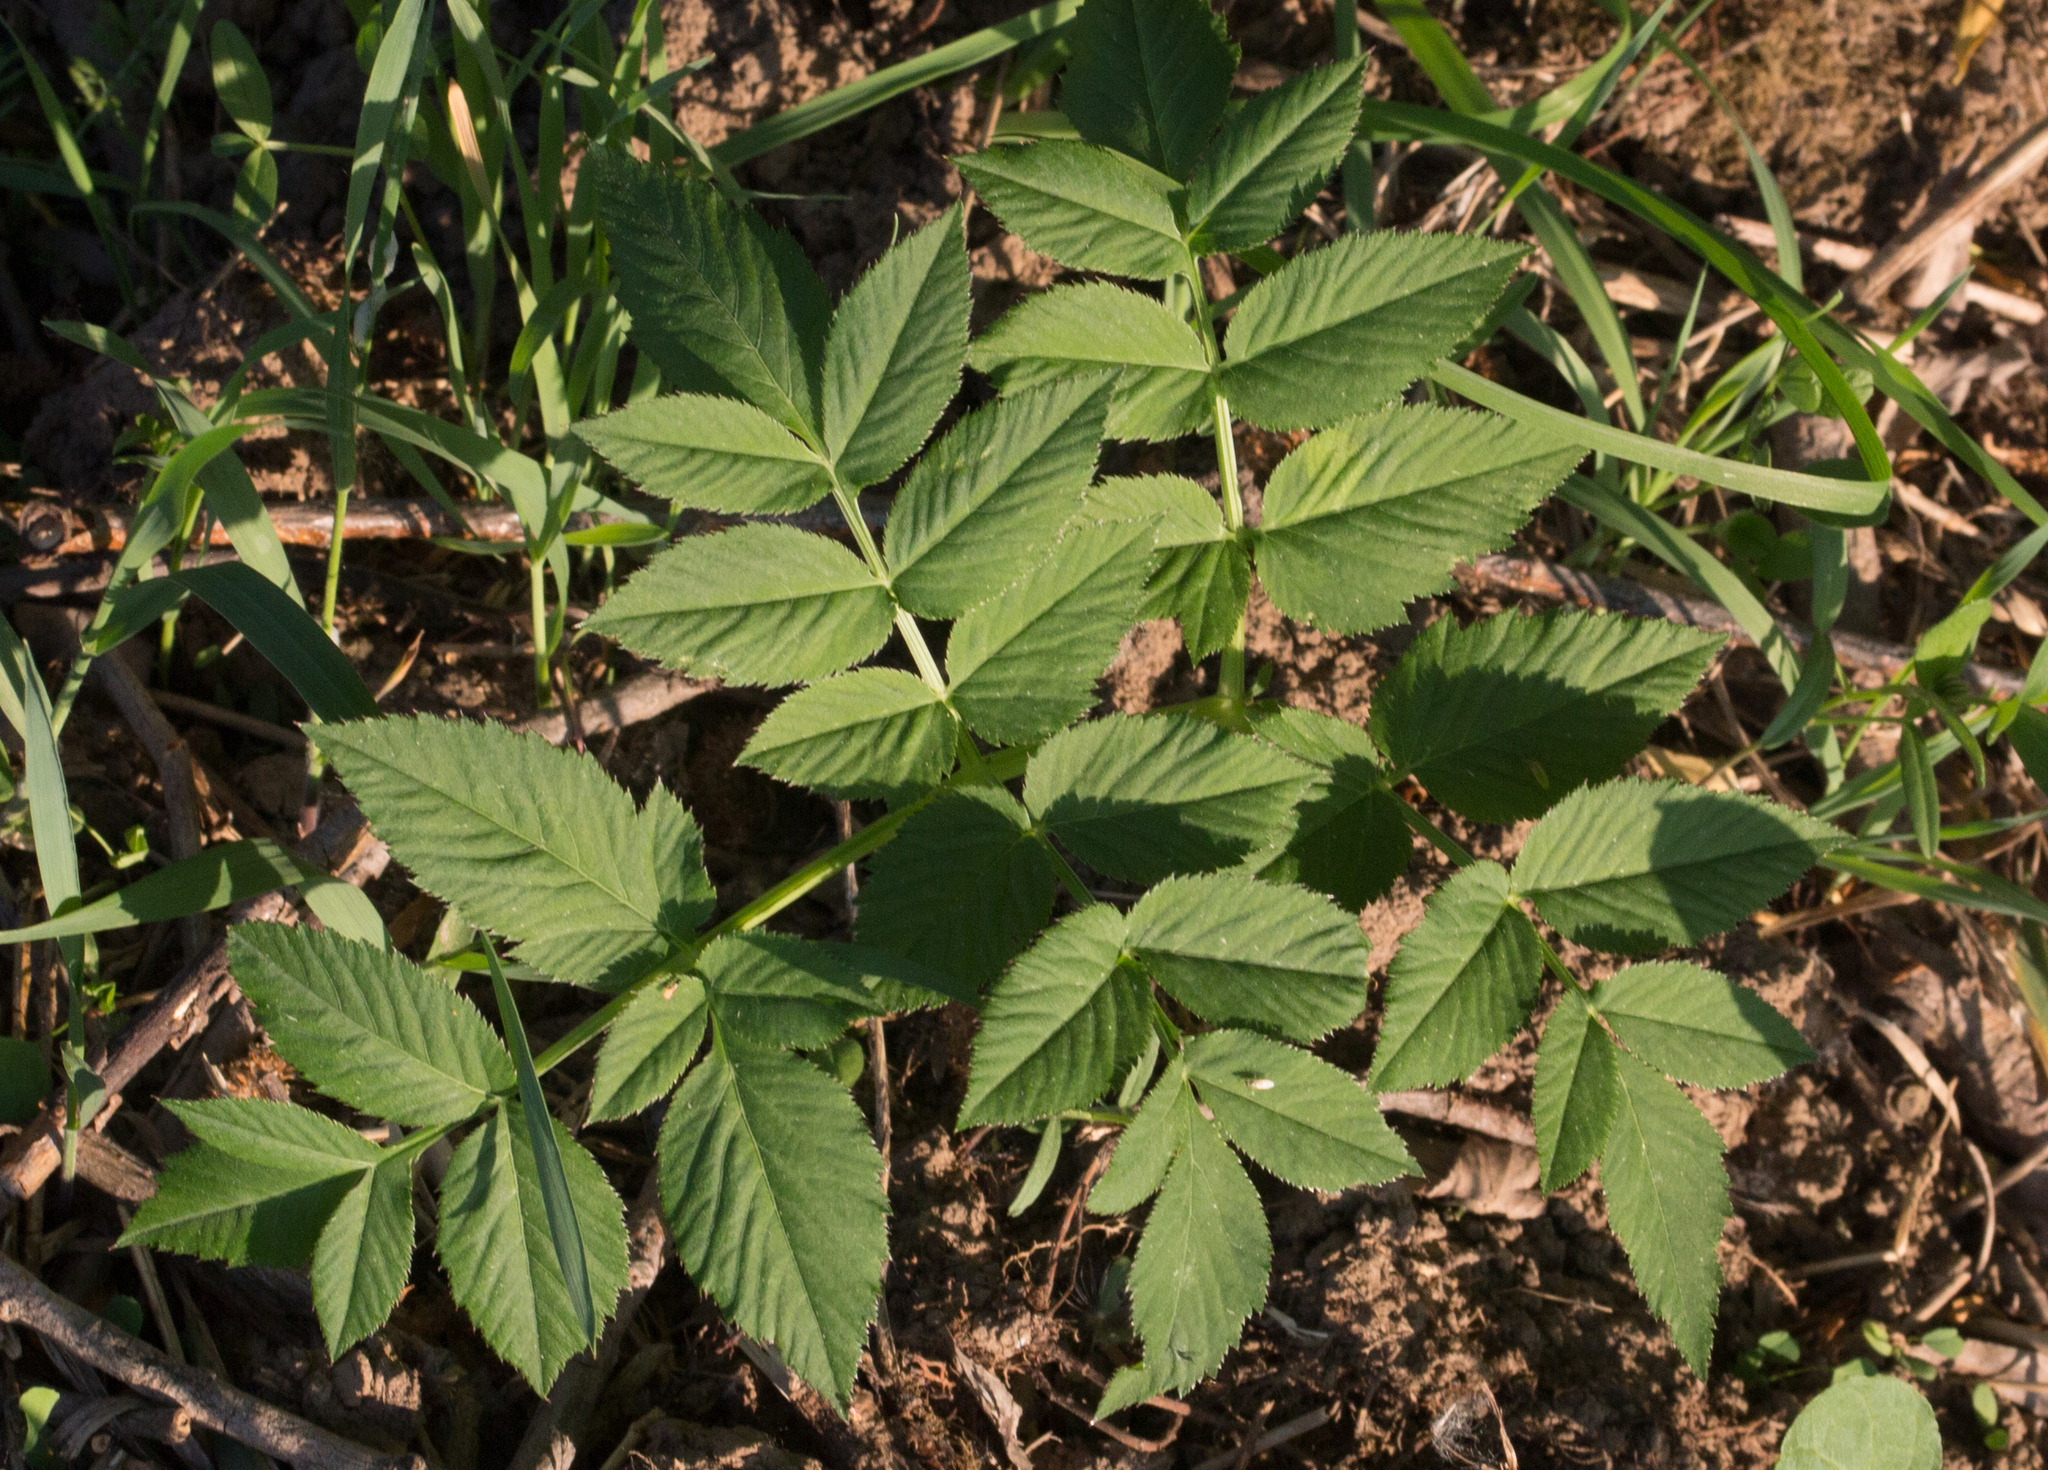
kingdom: Plantae
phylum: Tracheophyta
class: Magnoliopsida
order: Apiales
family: Apiaceae
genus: Angelica
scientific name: Angelica sylvestris
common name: Wild angelica
